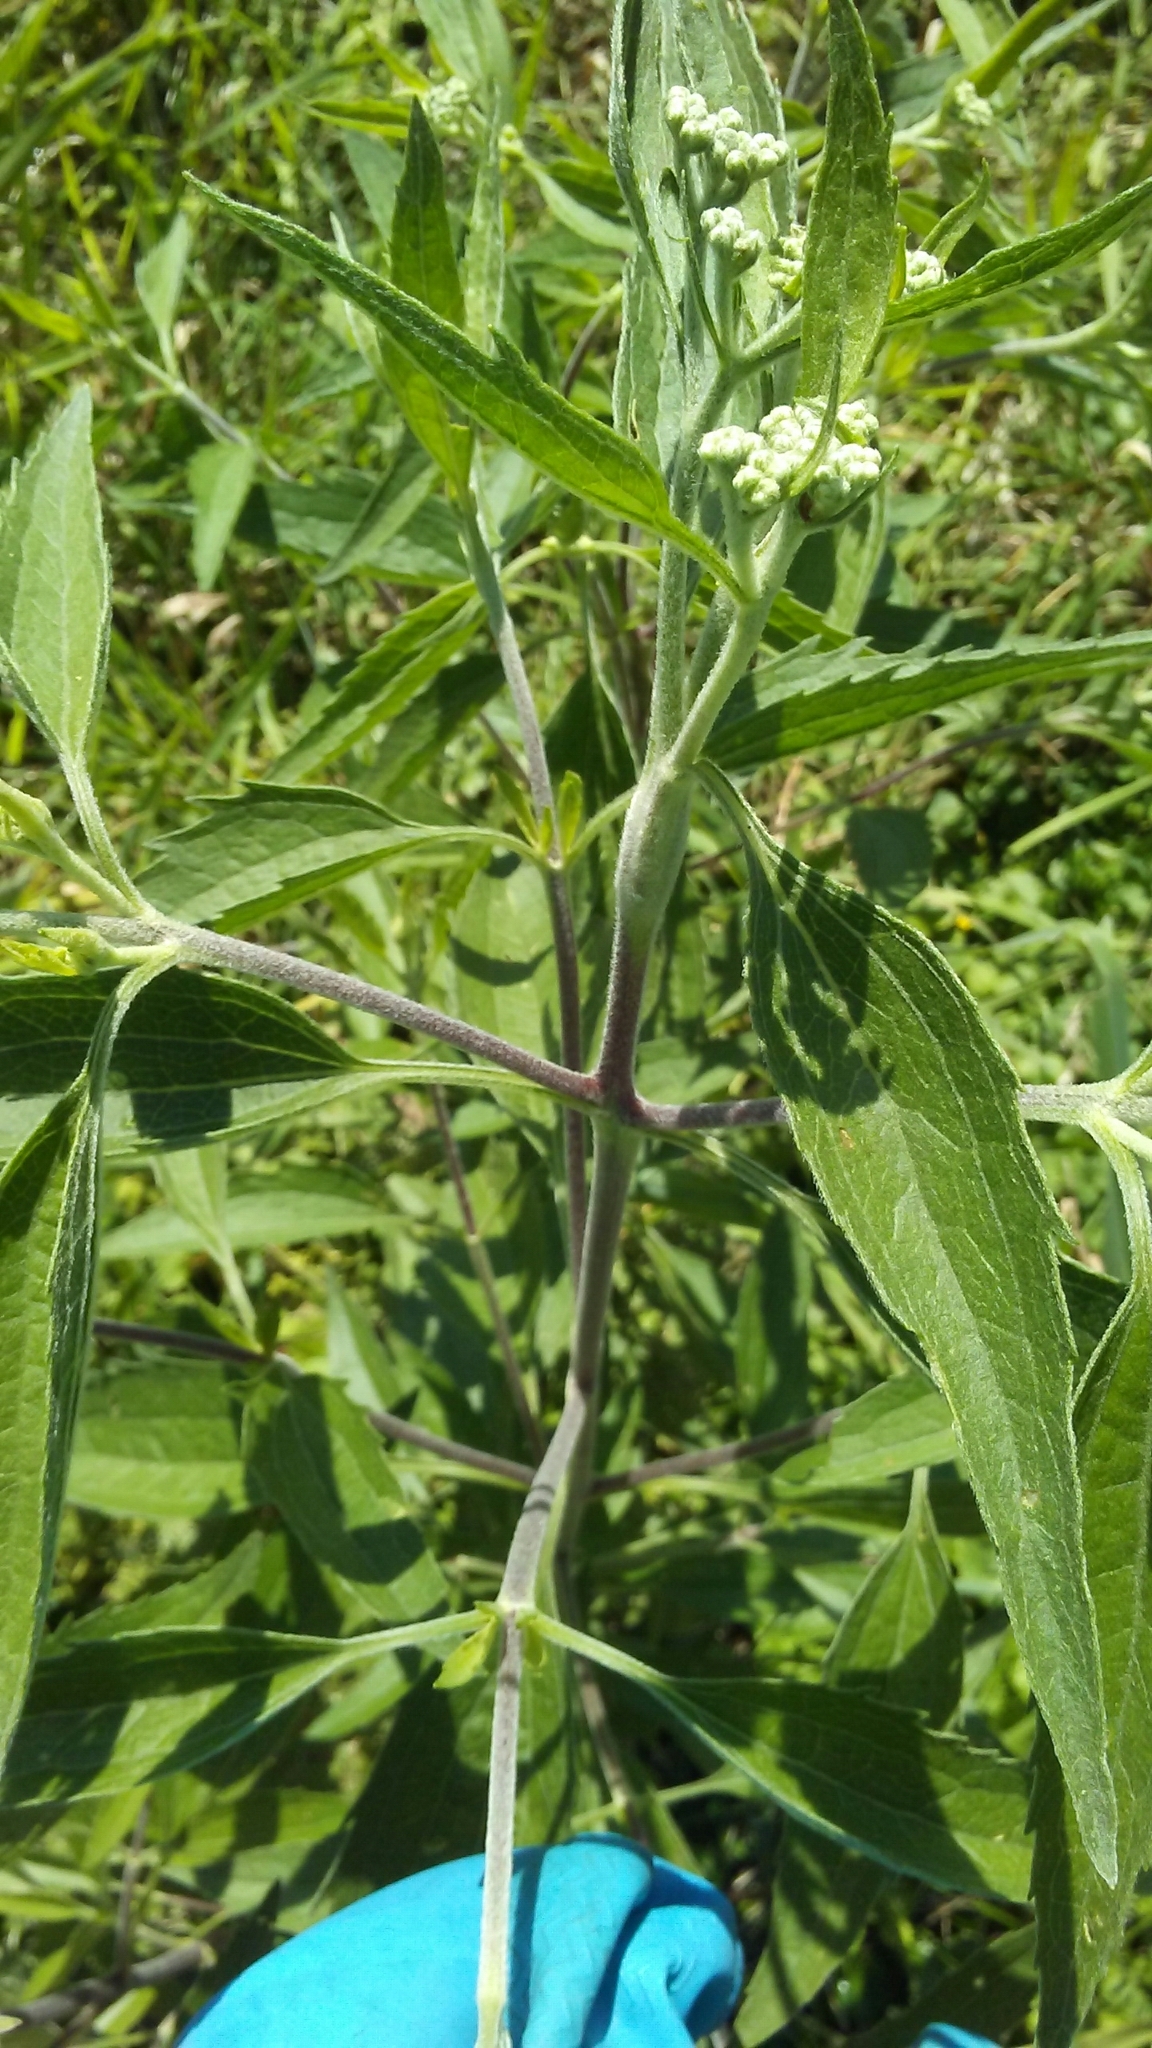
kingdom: Plantae
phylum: Tracheophyta
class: Magnoliopsida
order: Asterales
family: Asteraceae
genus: Eupatorium
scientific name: Eupatorium serotinum
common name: Late boneset
